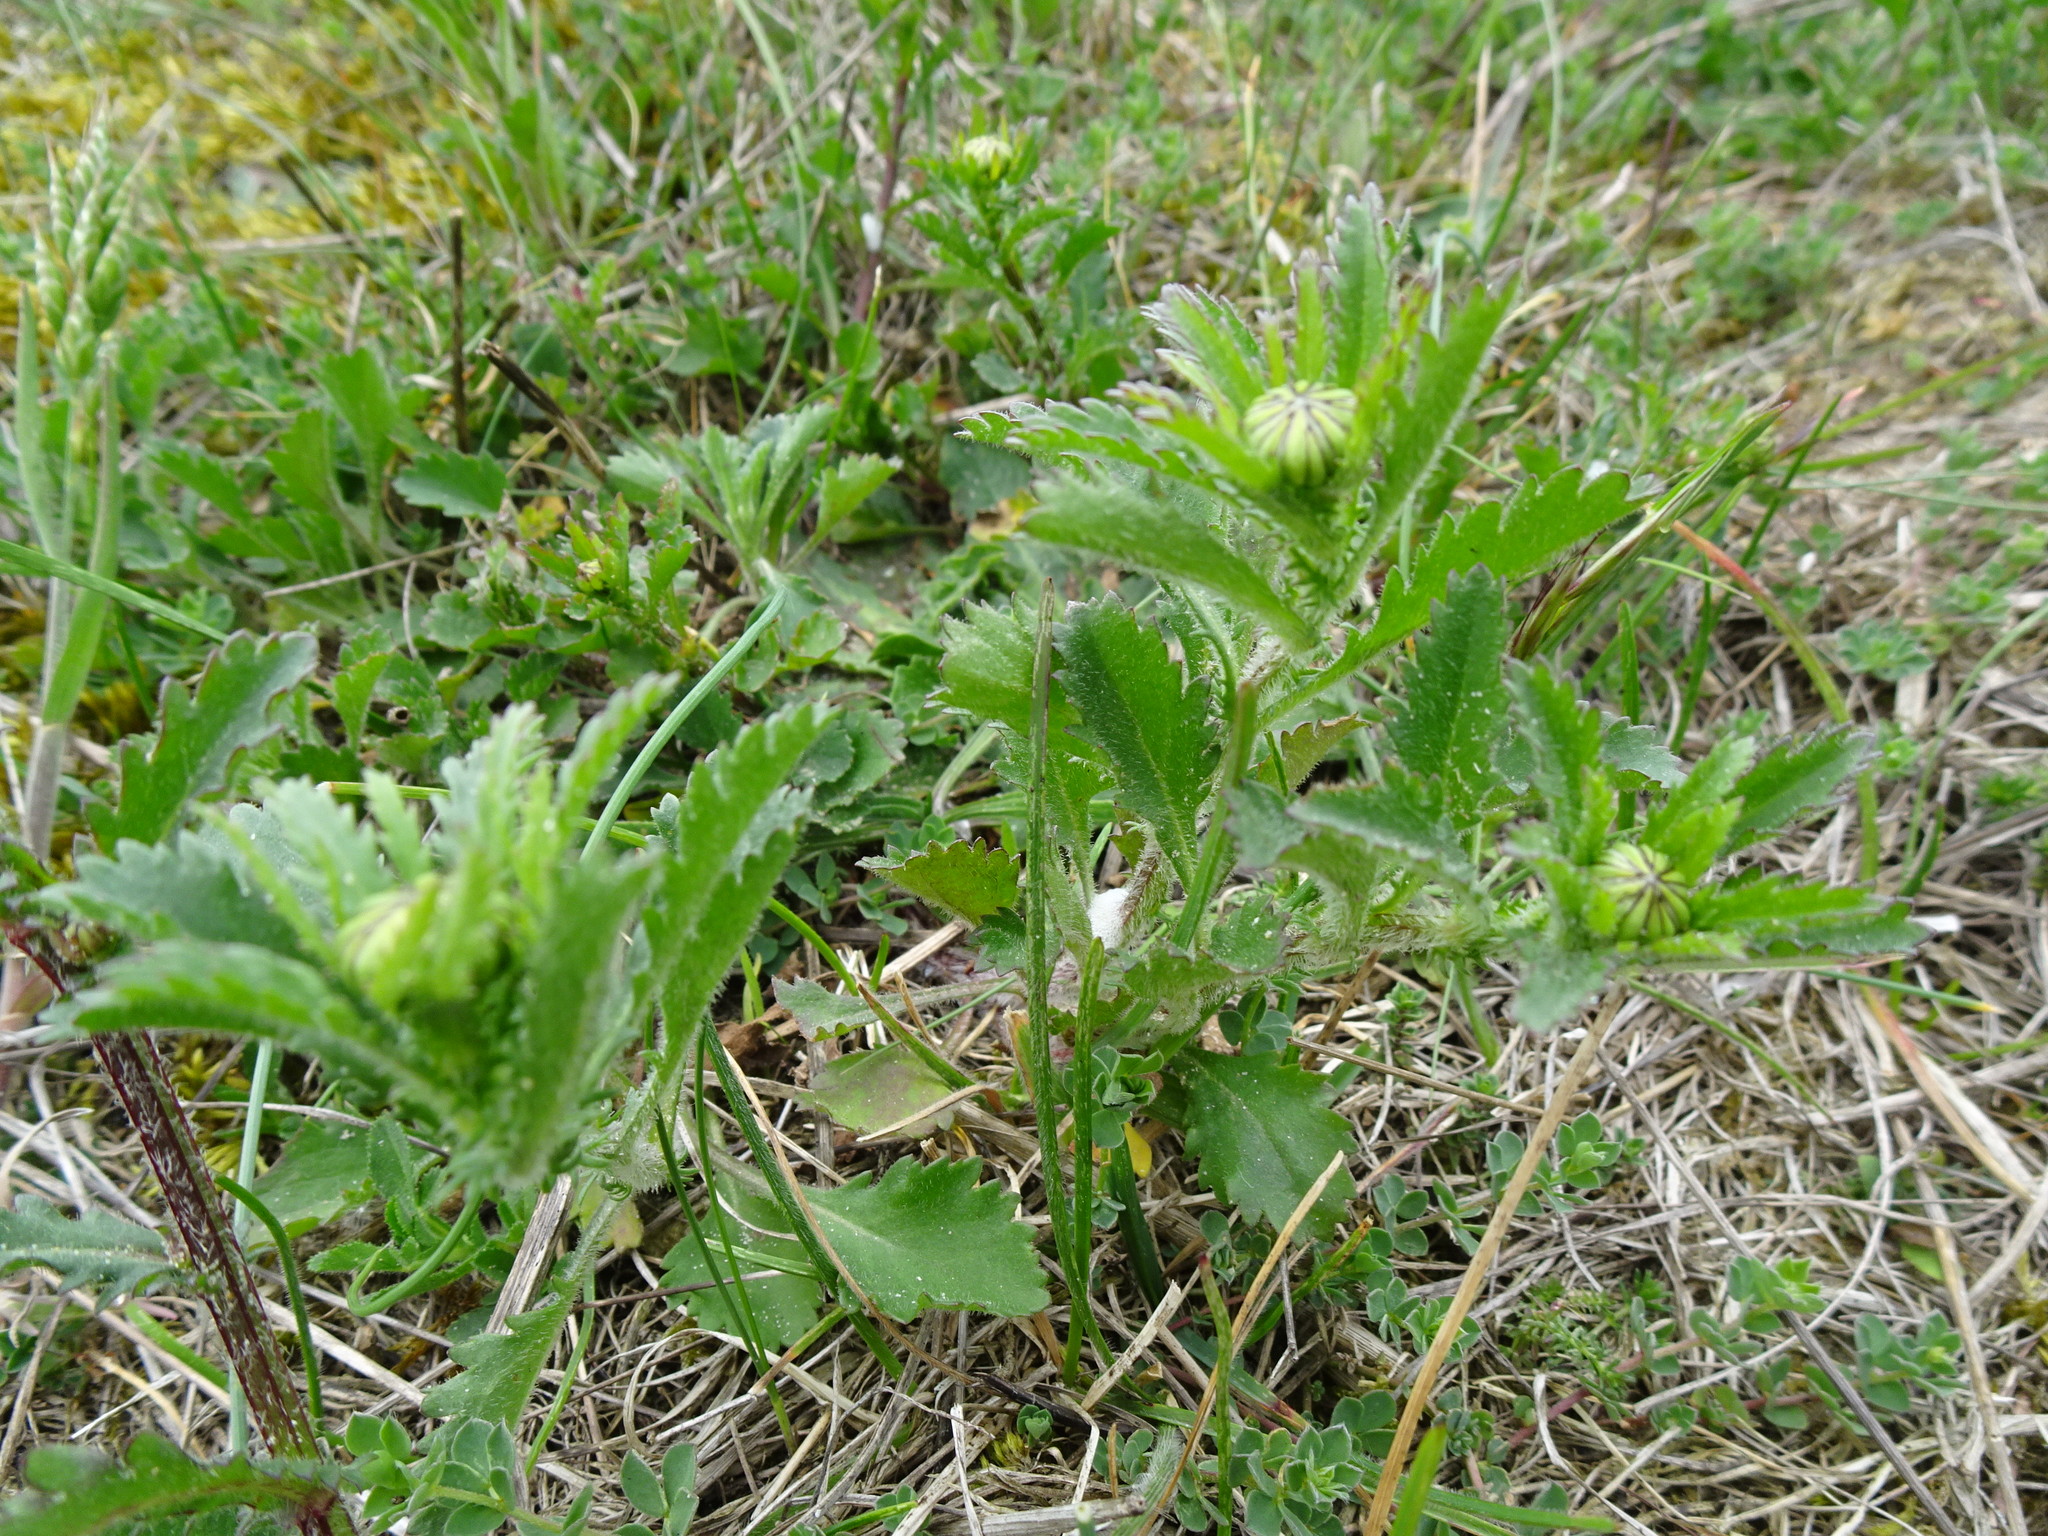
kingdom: Plantae
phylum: Tracheophyta
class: Magnoliopsida
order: Asterales
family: Asteraceae
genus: Leucanthemum
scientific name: Leucanthemum vulgare
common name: Oxeye daisy
